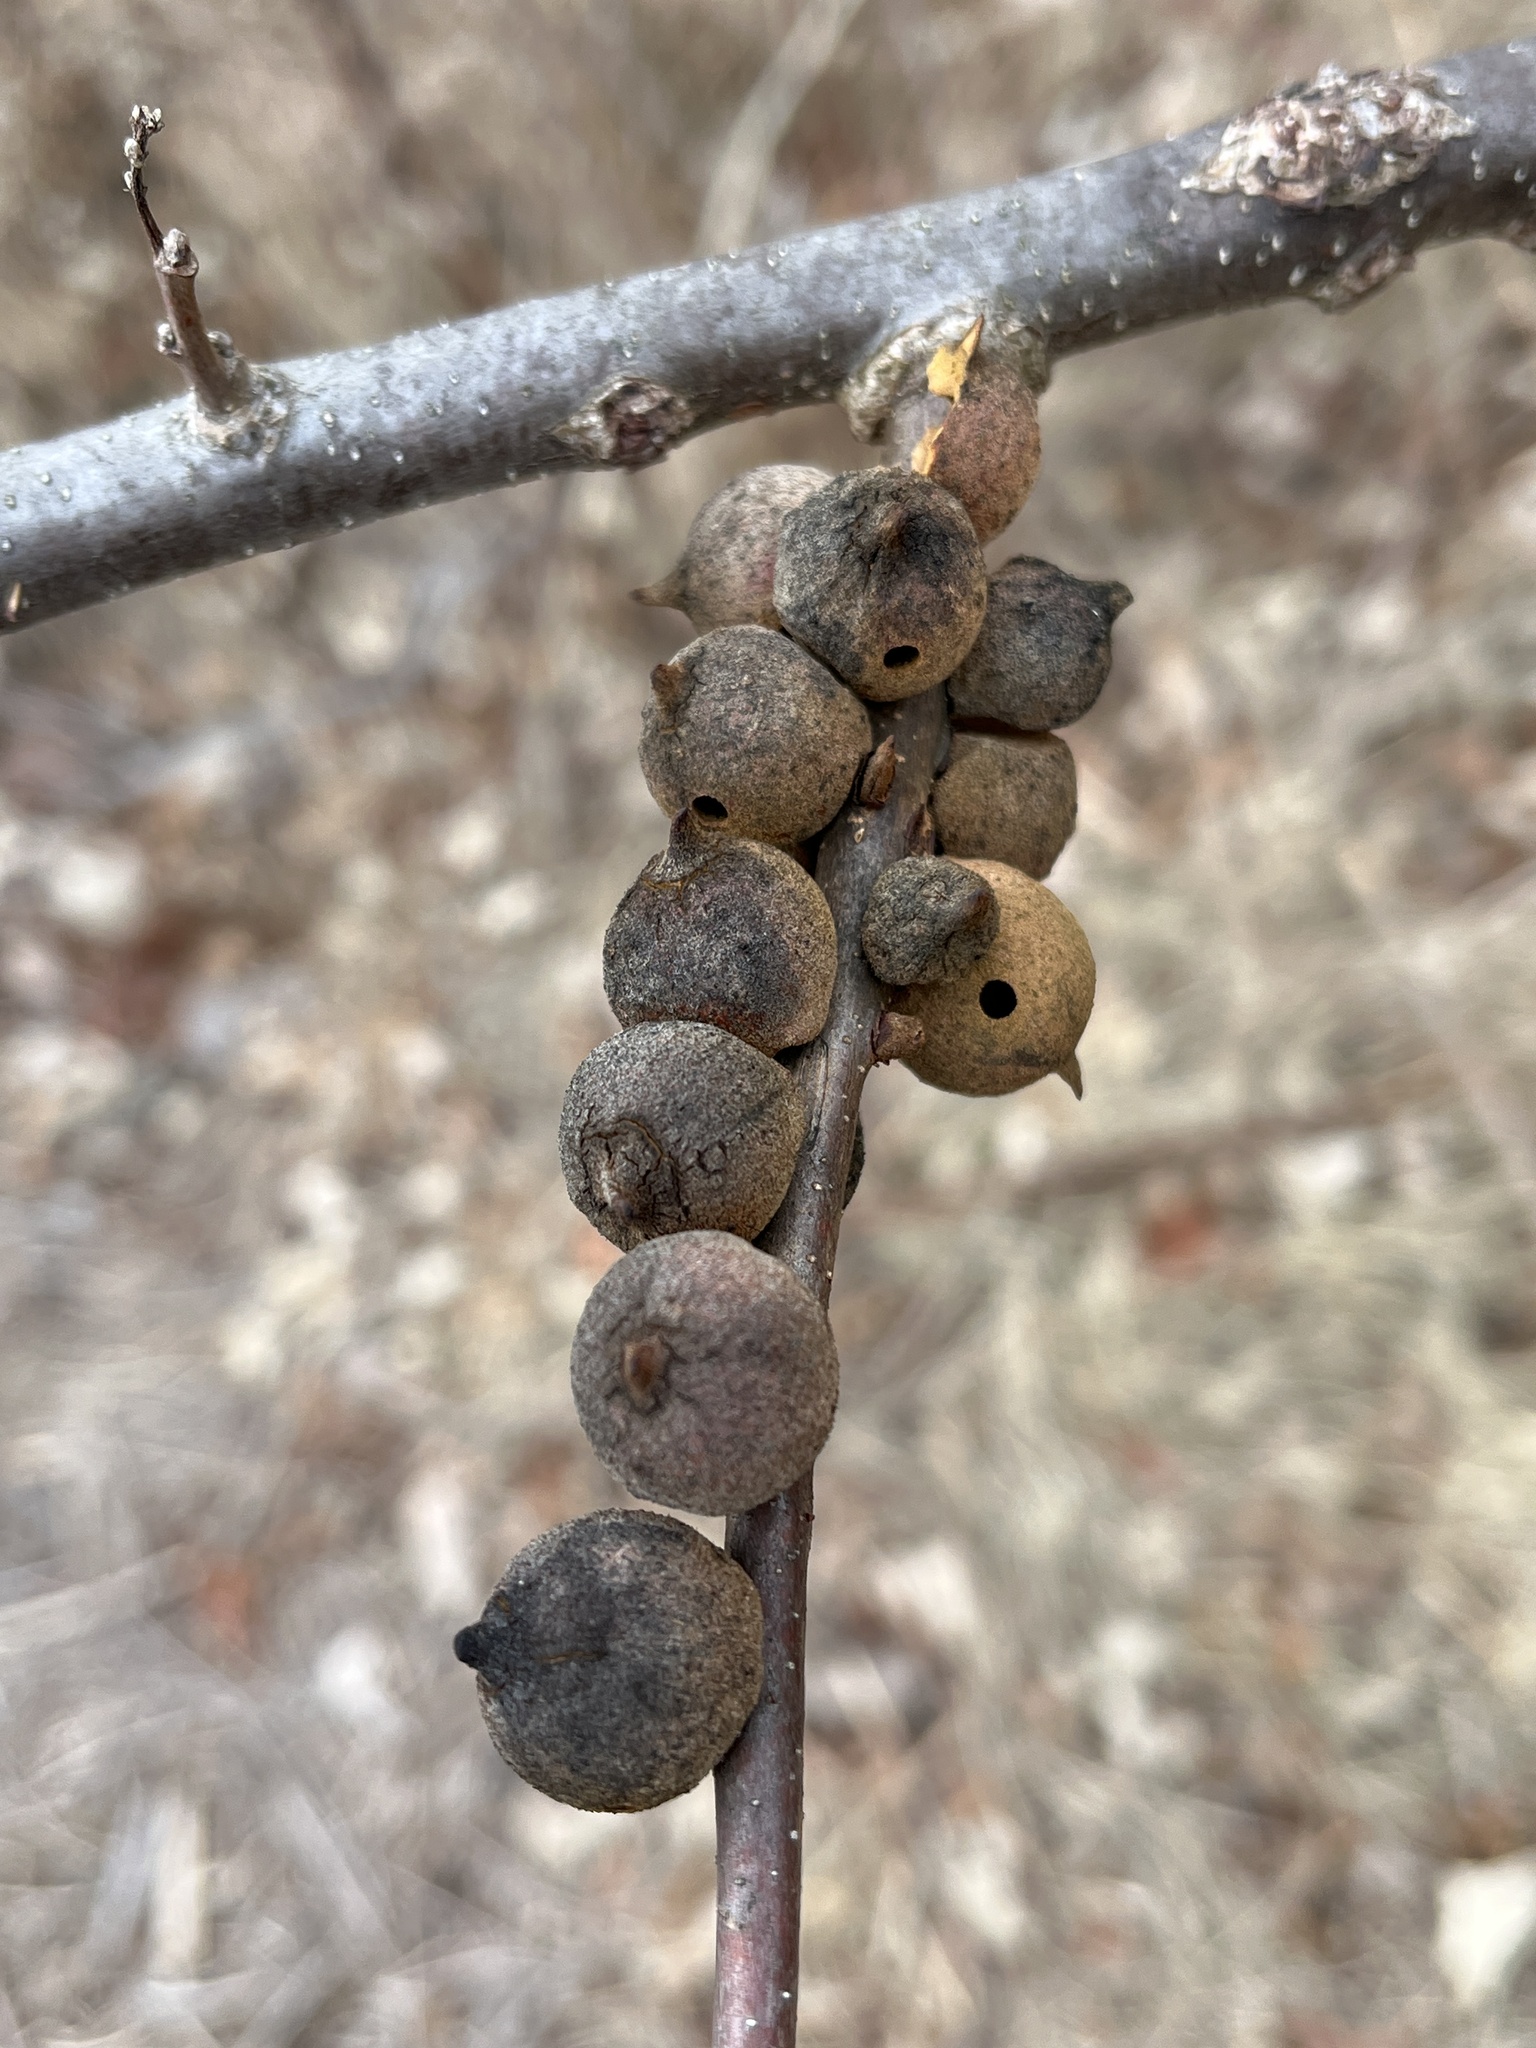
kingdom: Animalia
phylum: Arthropoda
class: Insecta
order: Hymenoptera
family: Cynipidae
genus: Disholcaspis
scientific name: Disholcaspis
